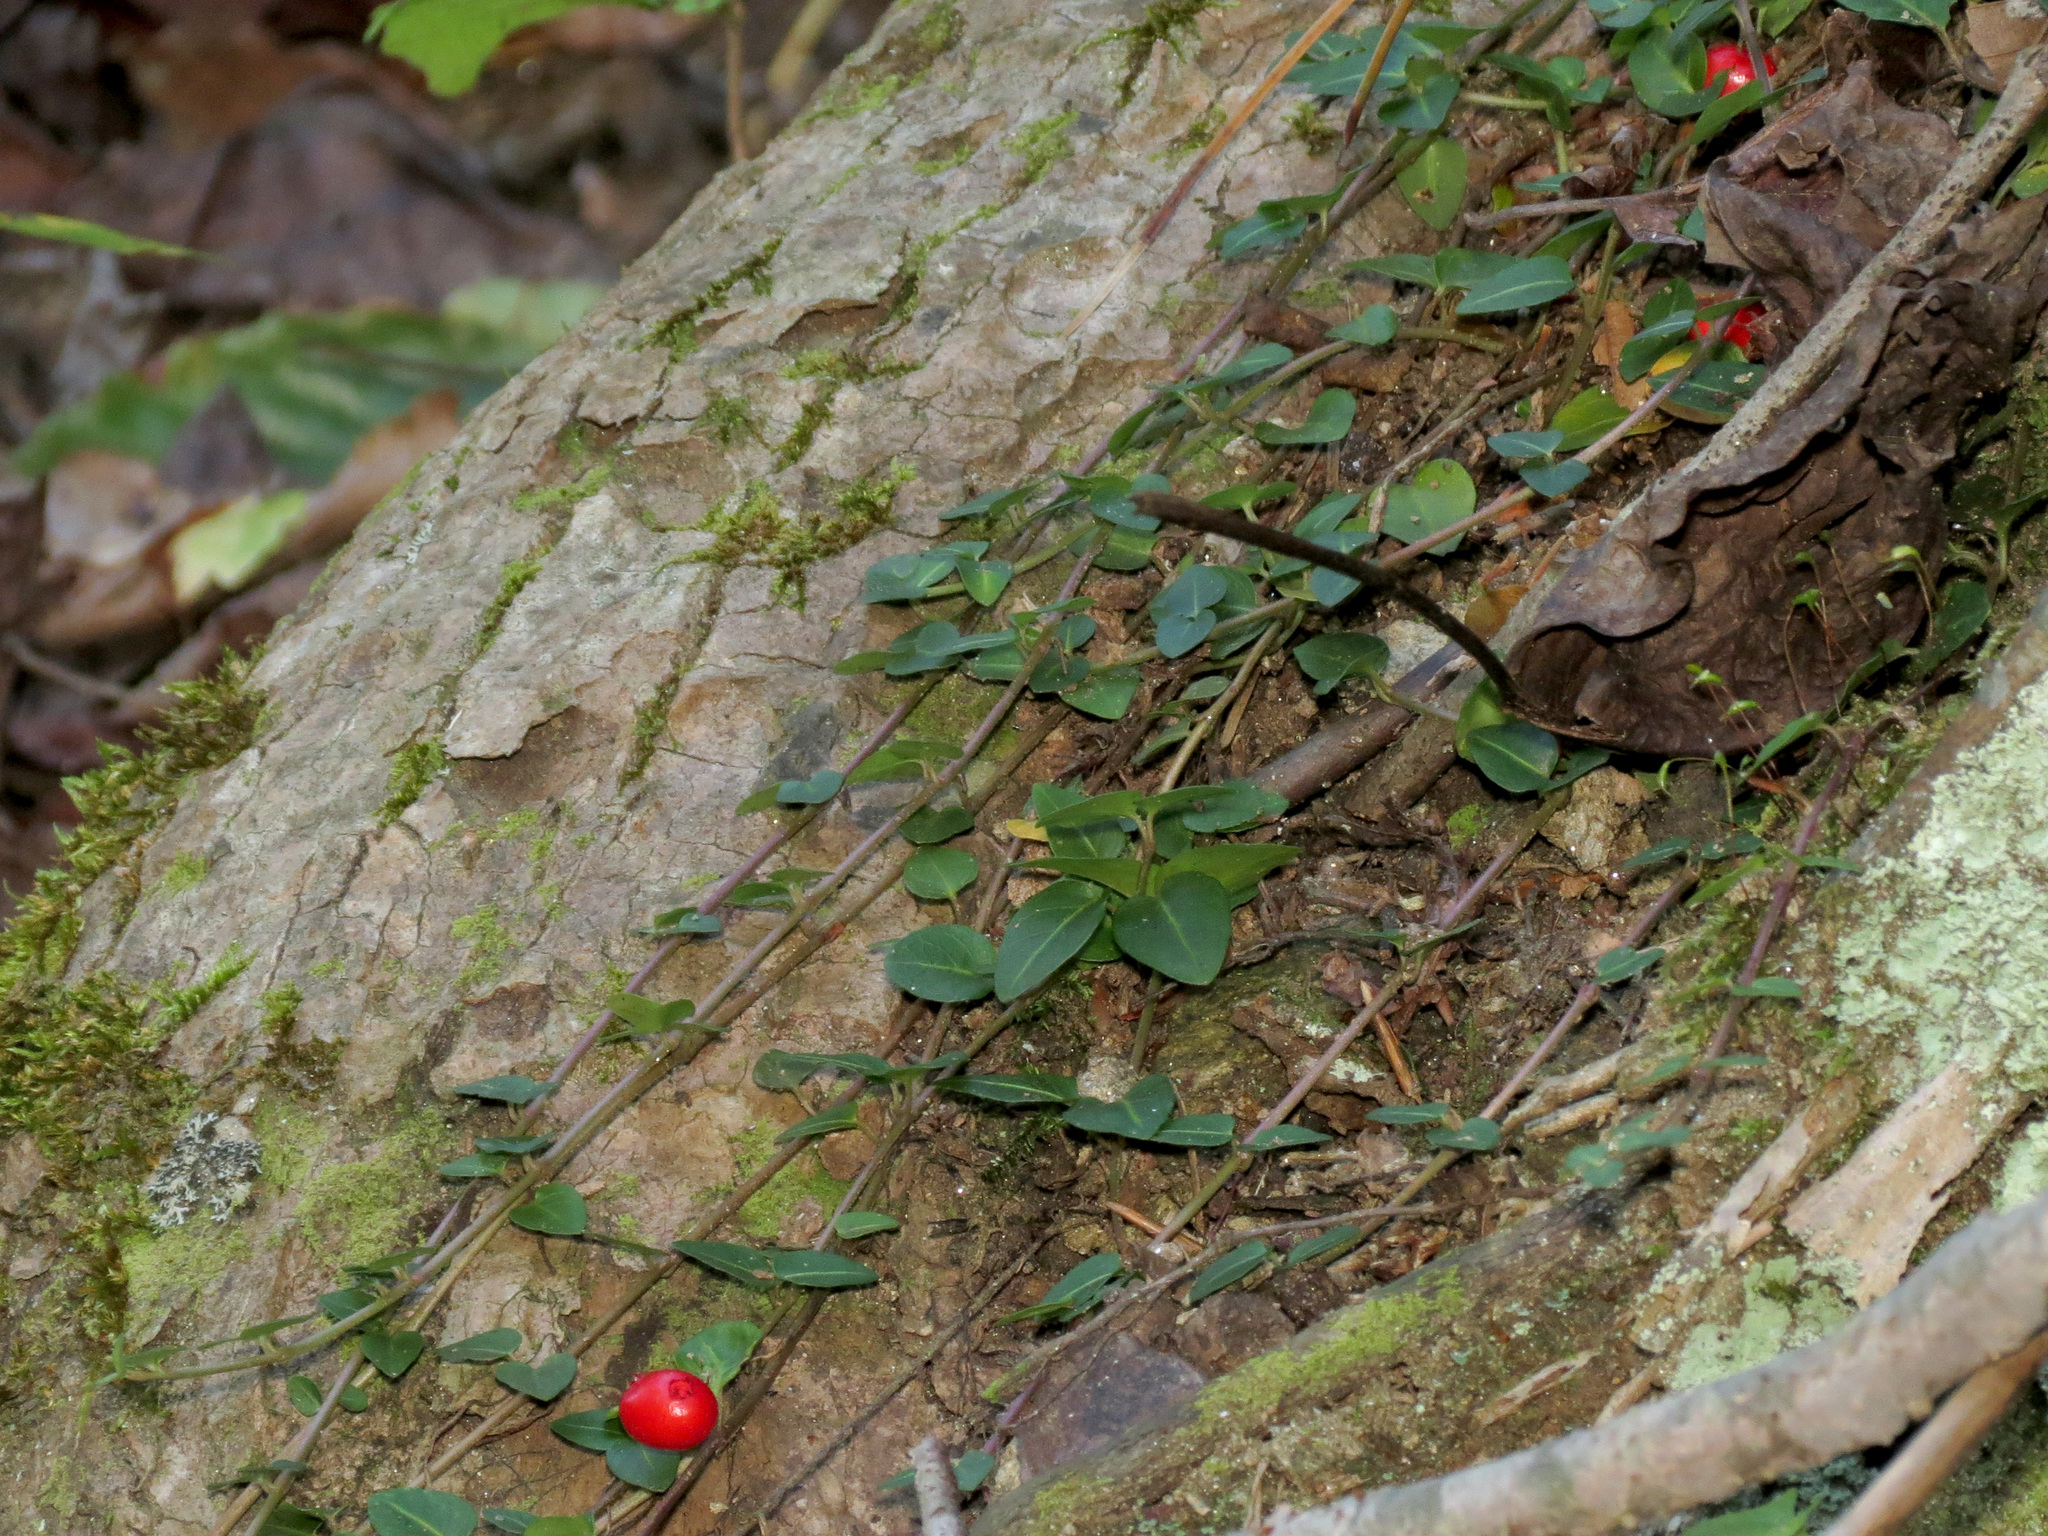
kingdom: Plantae
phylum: Tracheophyta
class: Magnoliopsida
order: Gentianales
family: Rubiaceae
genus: Mitchella
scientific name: Mitchella repens
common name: Partridge-berry
